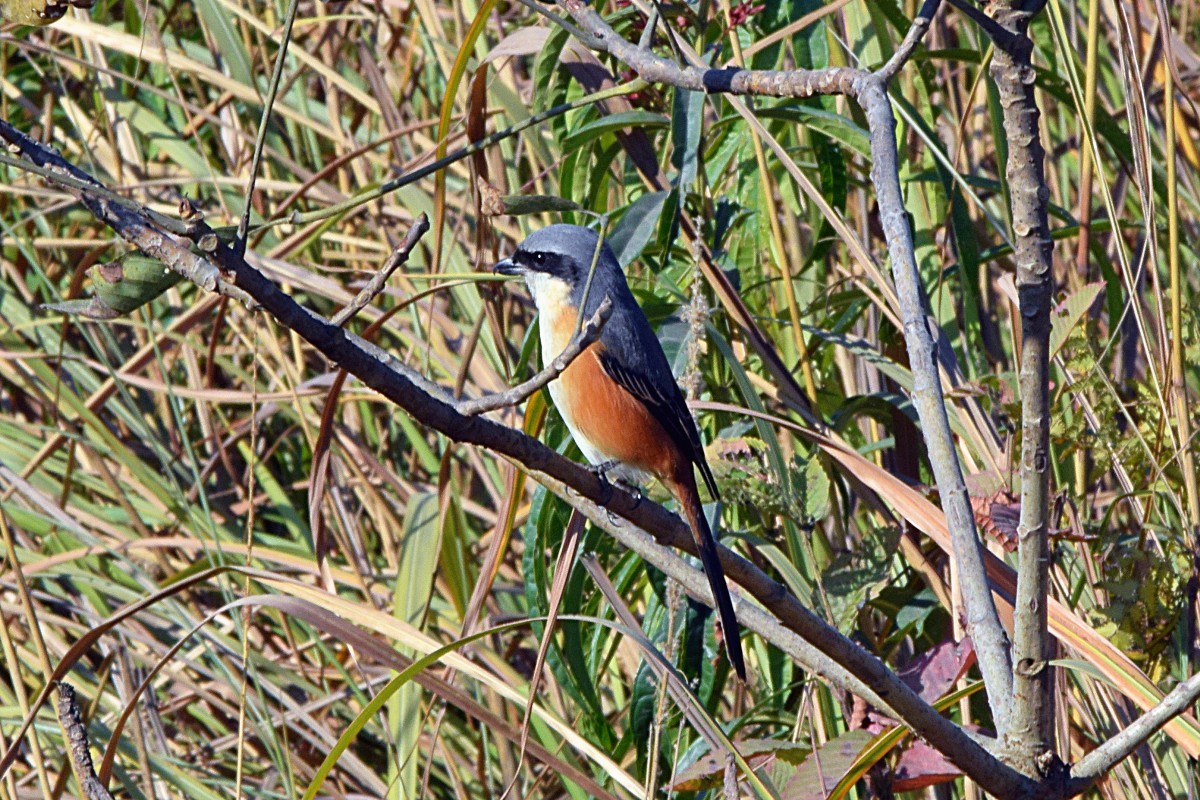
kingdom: Animalia
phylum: Chordata
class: Aves
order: Passeriformes
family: Laniidae
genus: Lanius
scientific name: Lanius tephronotus
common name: Grey-backed shrike
